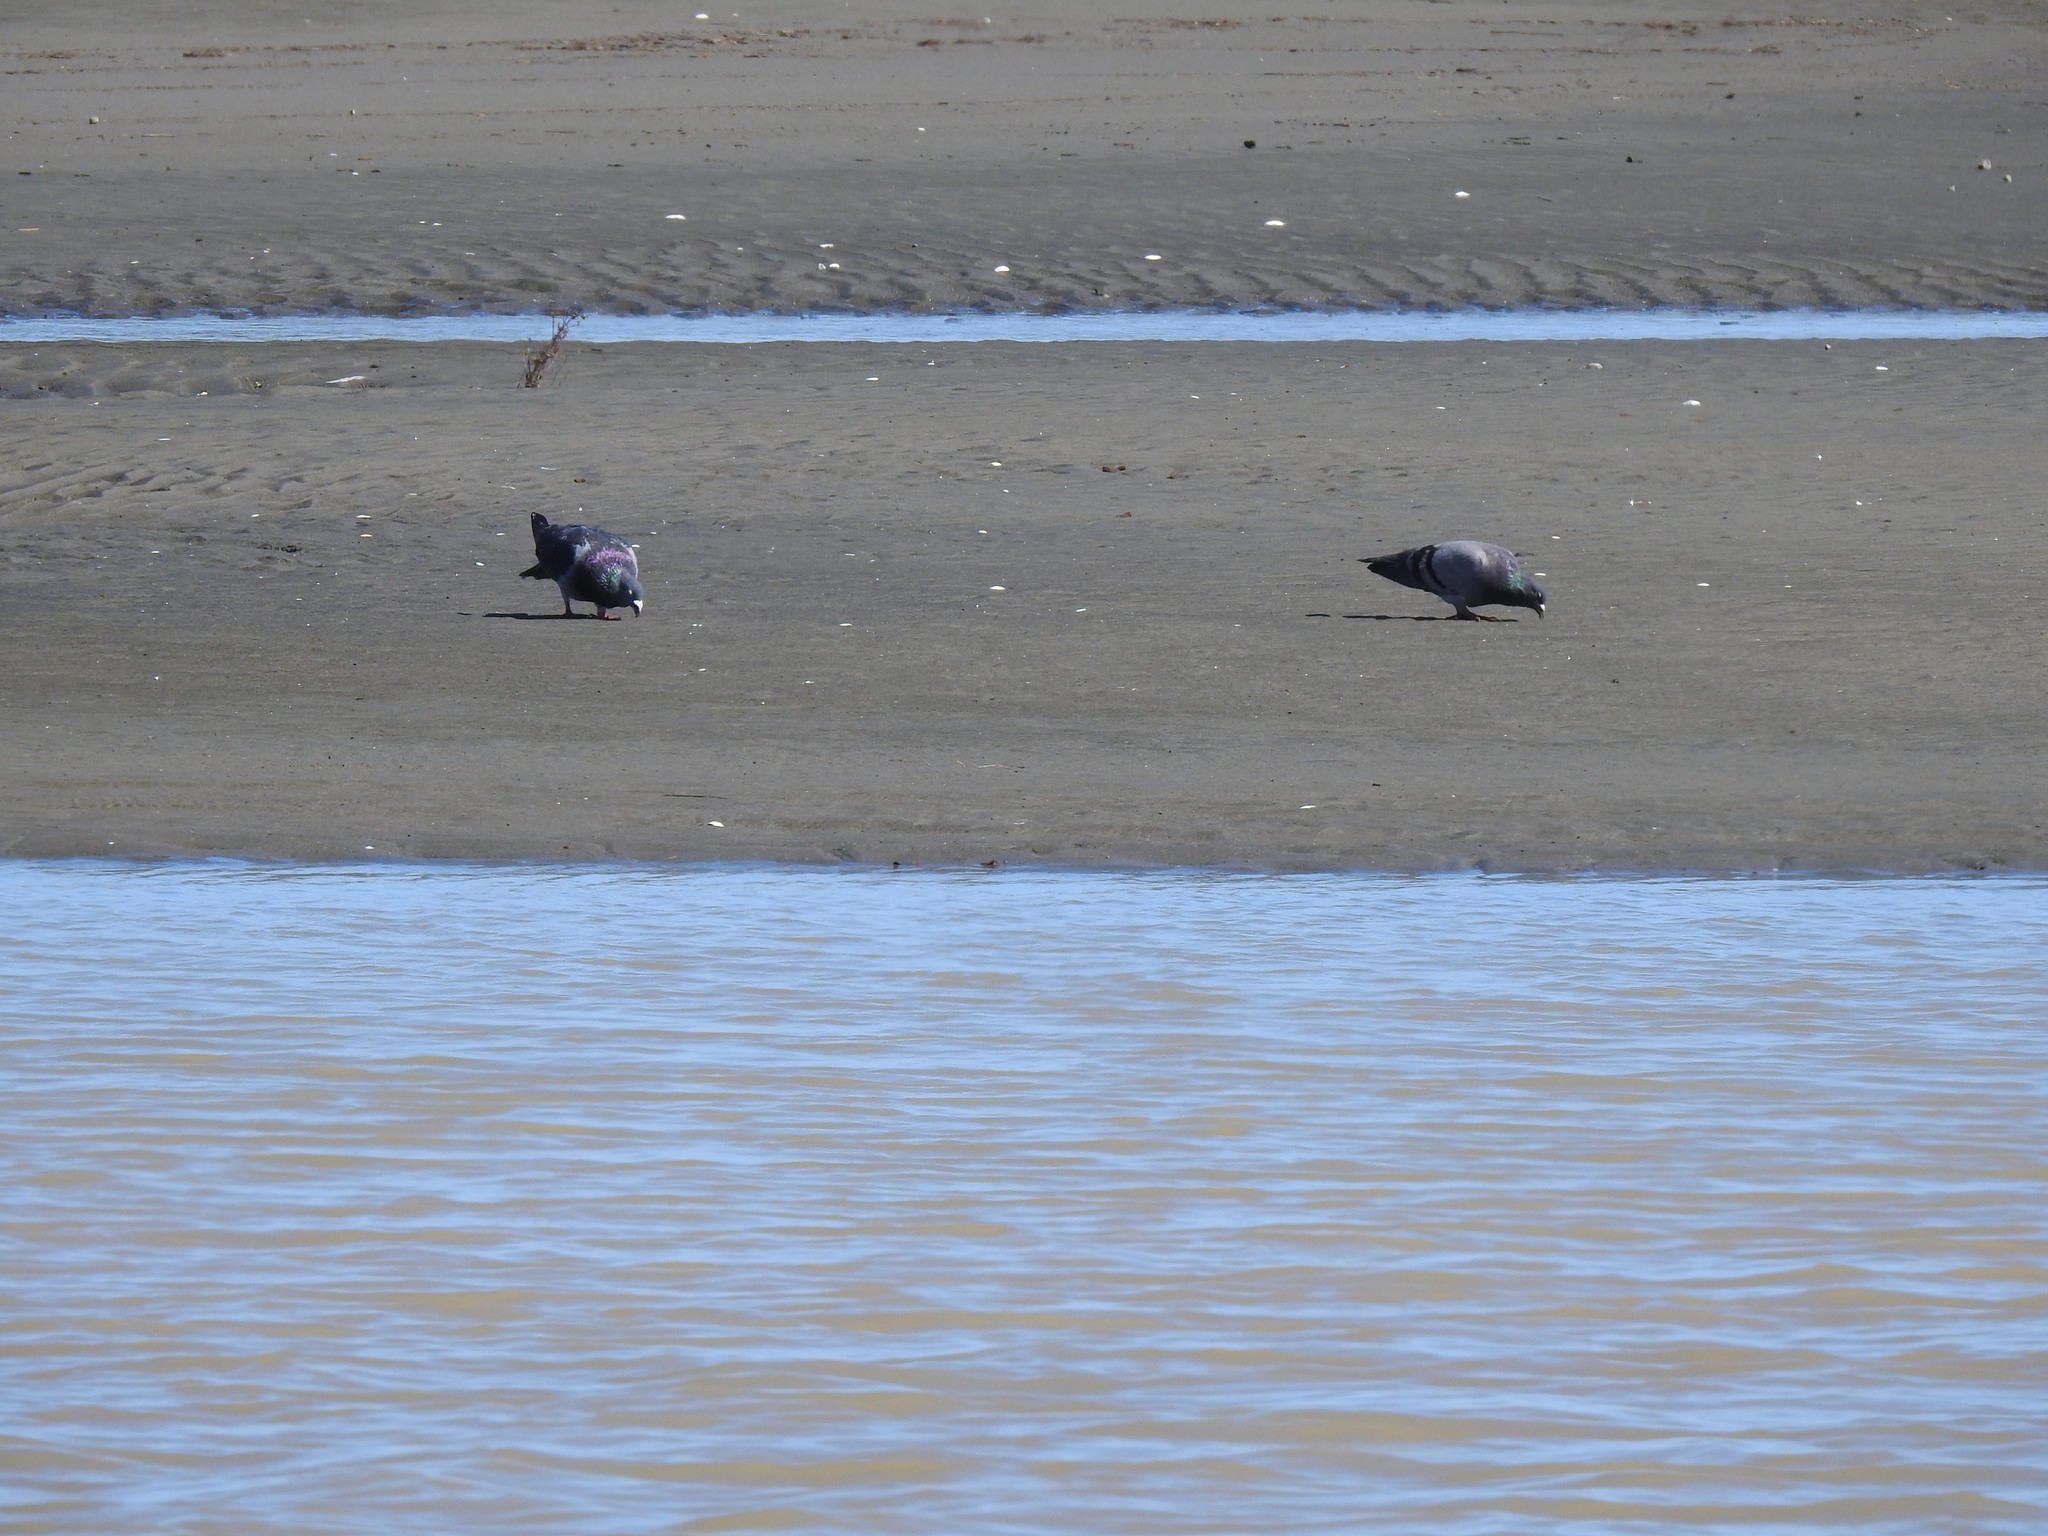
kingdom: Animalia
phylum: Chordata
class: Aves
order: Columbiformes
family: Columbidae
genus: Columba
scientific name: Columba livia
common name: Rock pigeon
